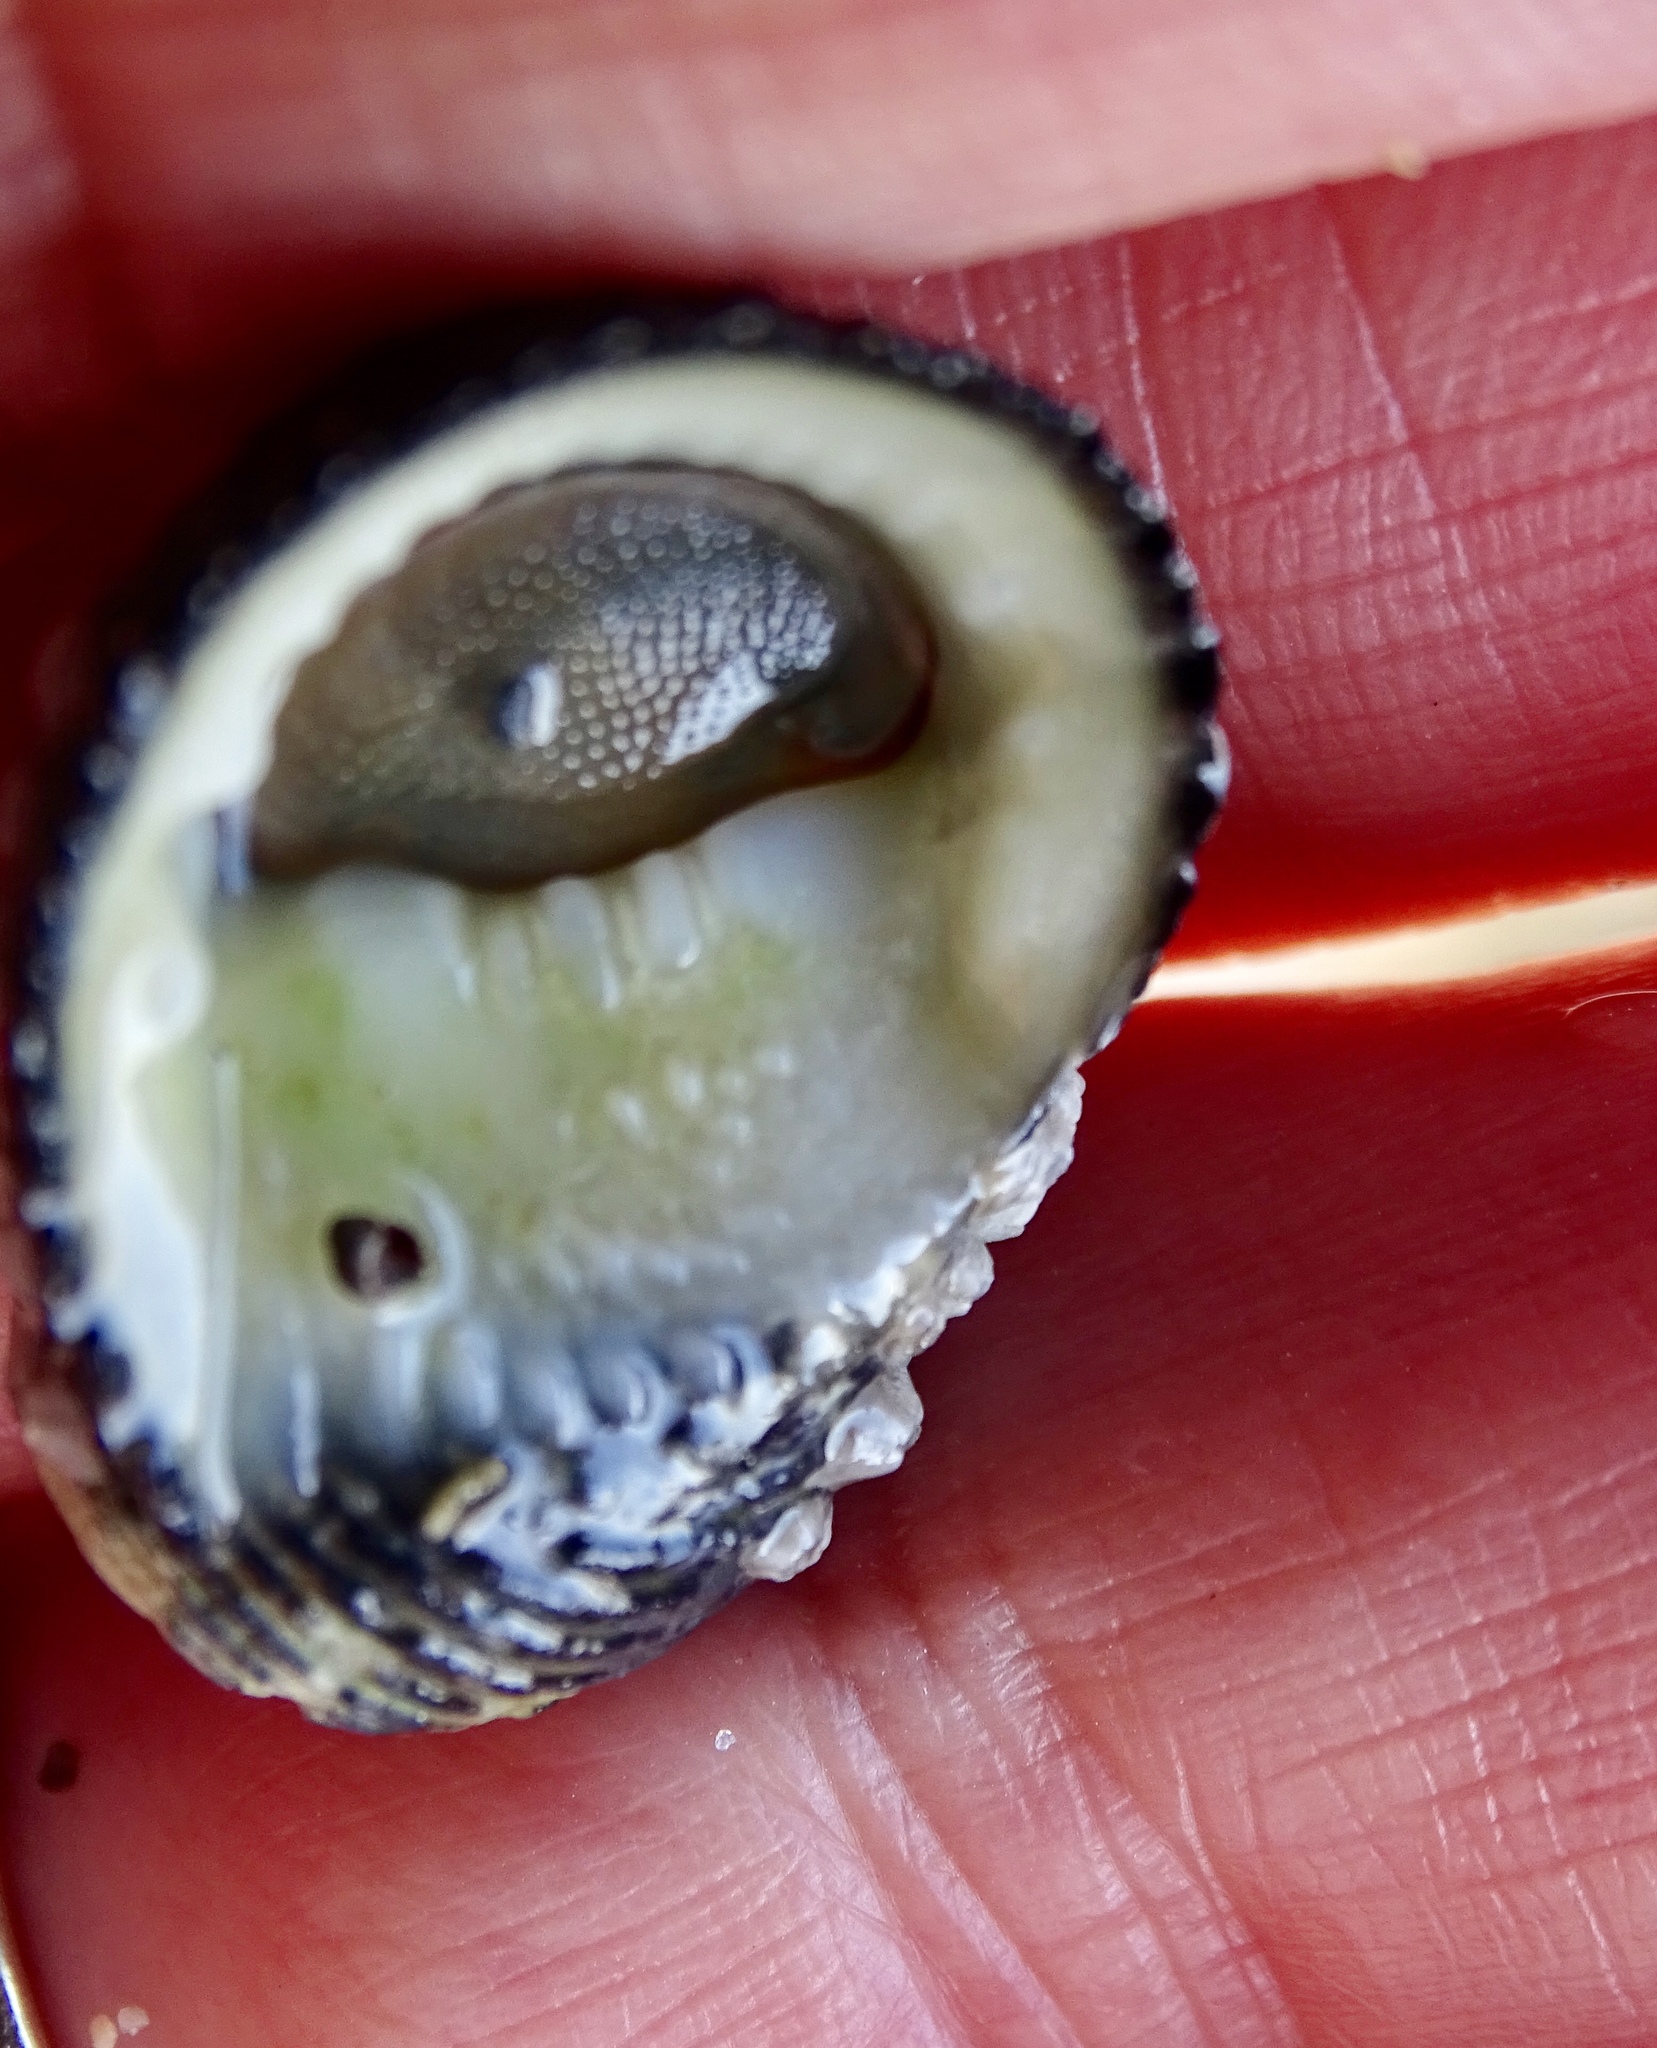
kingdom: Animalia
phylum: Mollusca
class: Gastropoda
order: Cycloneritida
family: Neritidae
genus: Nerita
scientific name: Nerita tessellata
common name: Checkered nerite
